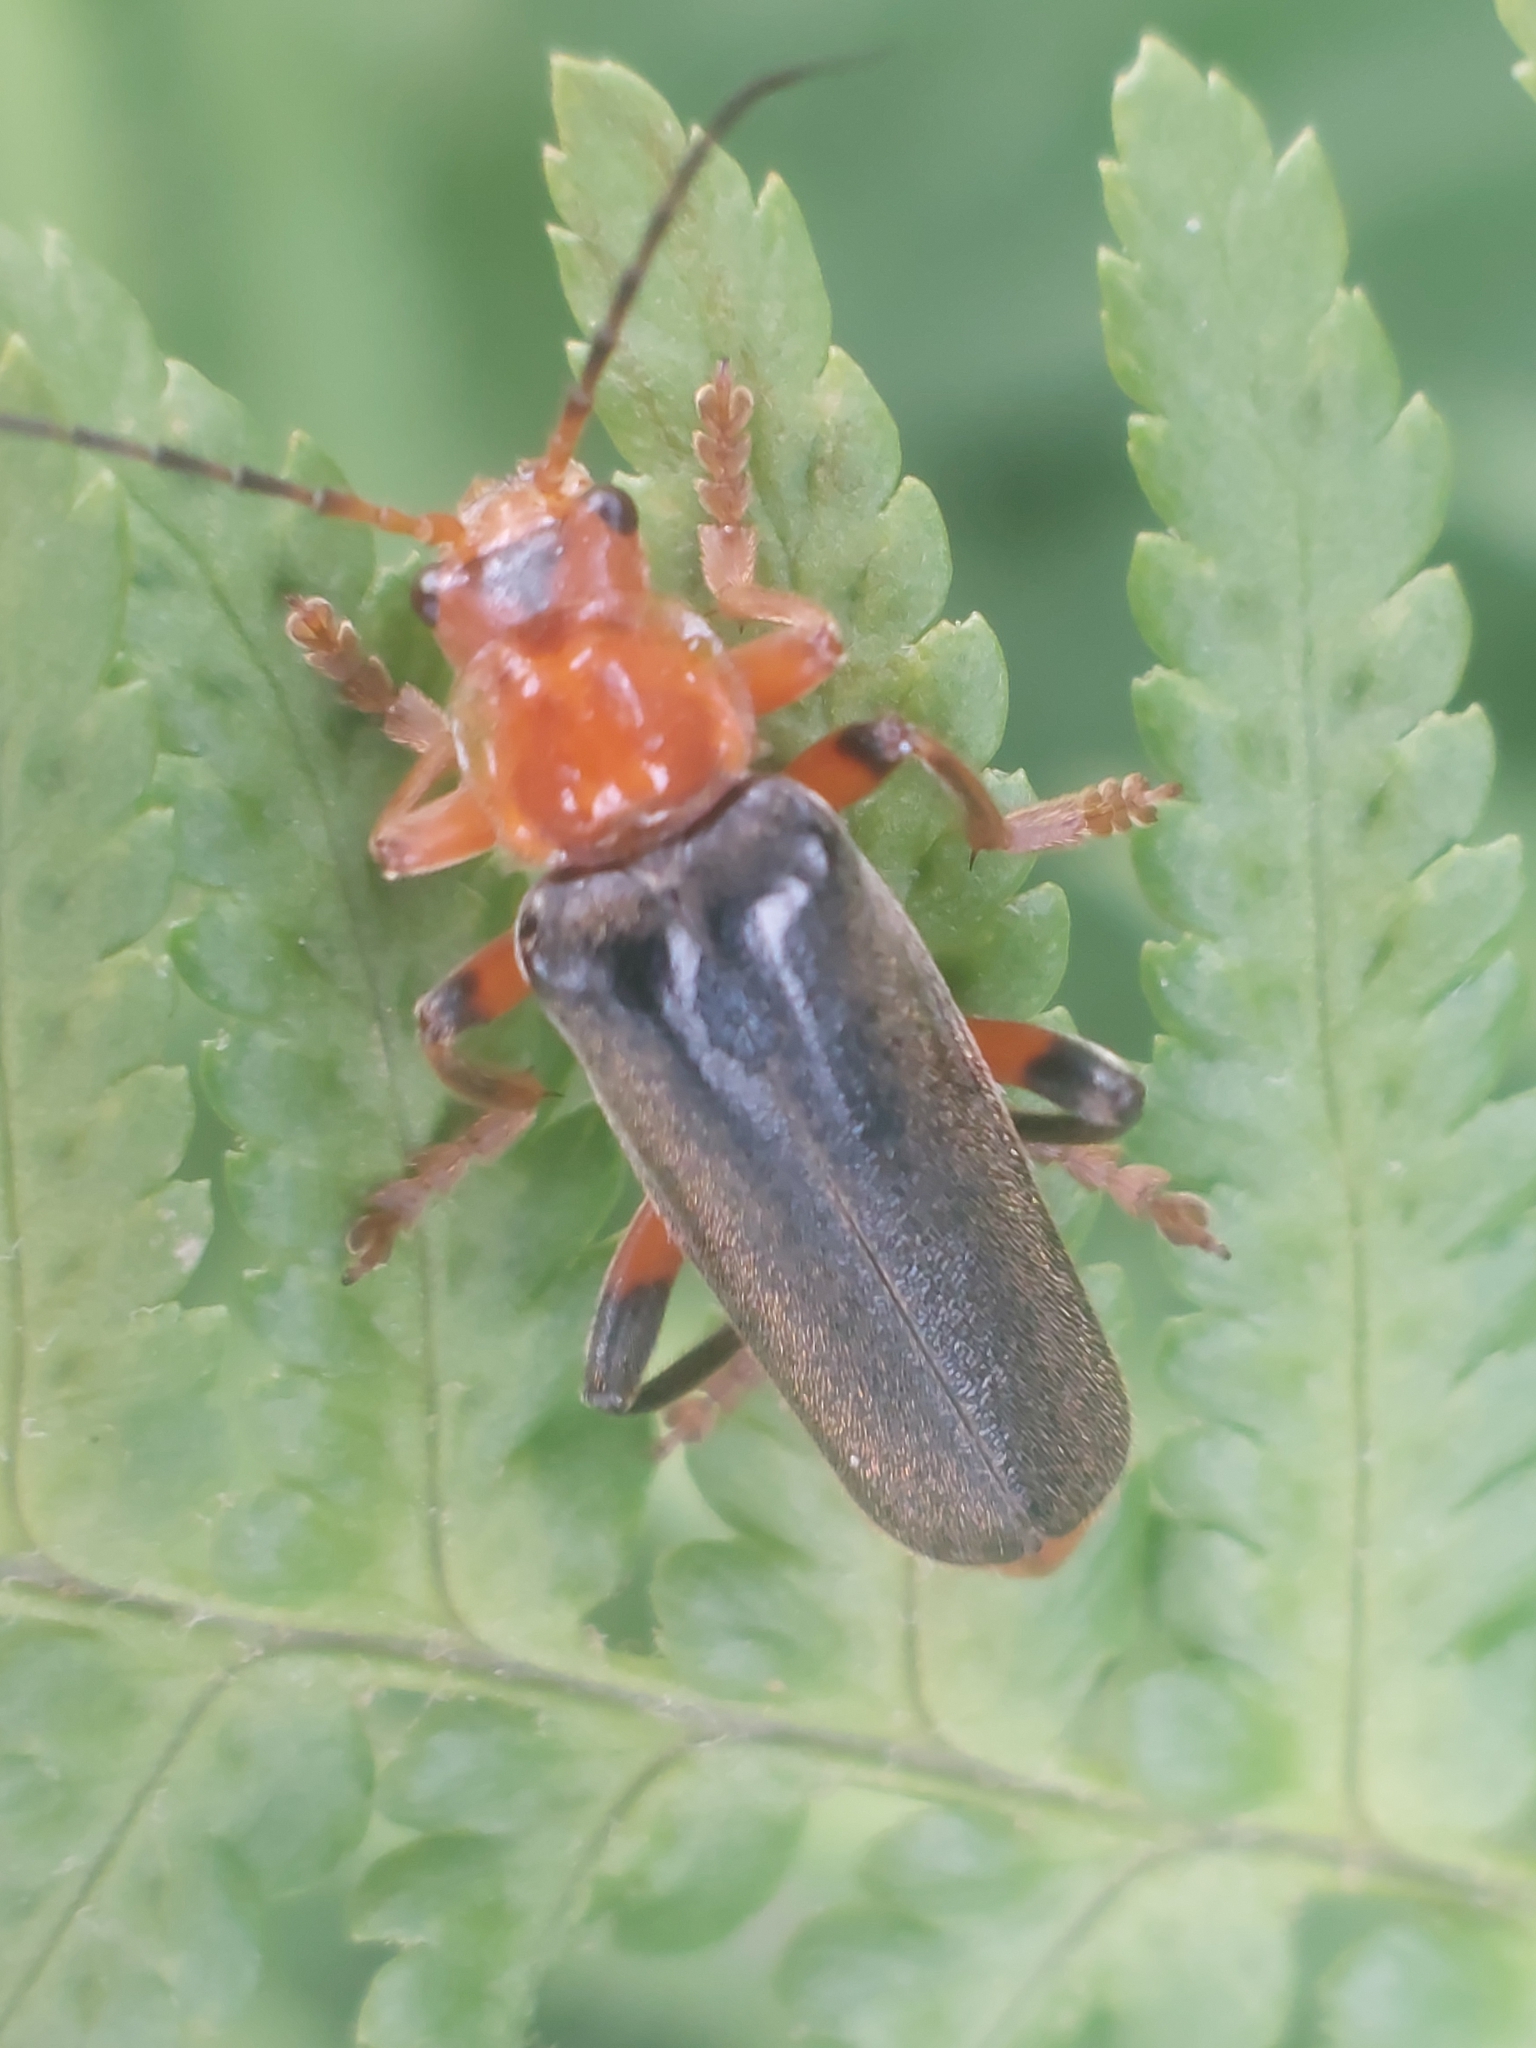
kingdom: Animalia
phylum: Arthropoda
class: Insecta
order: Coleoptera
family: Cantharidae
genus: Cantharis
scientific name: Cantharis livida
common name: Livid soldier beetle
